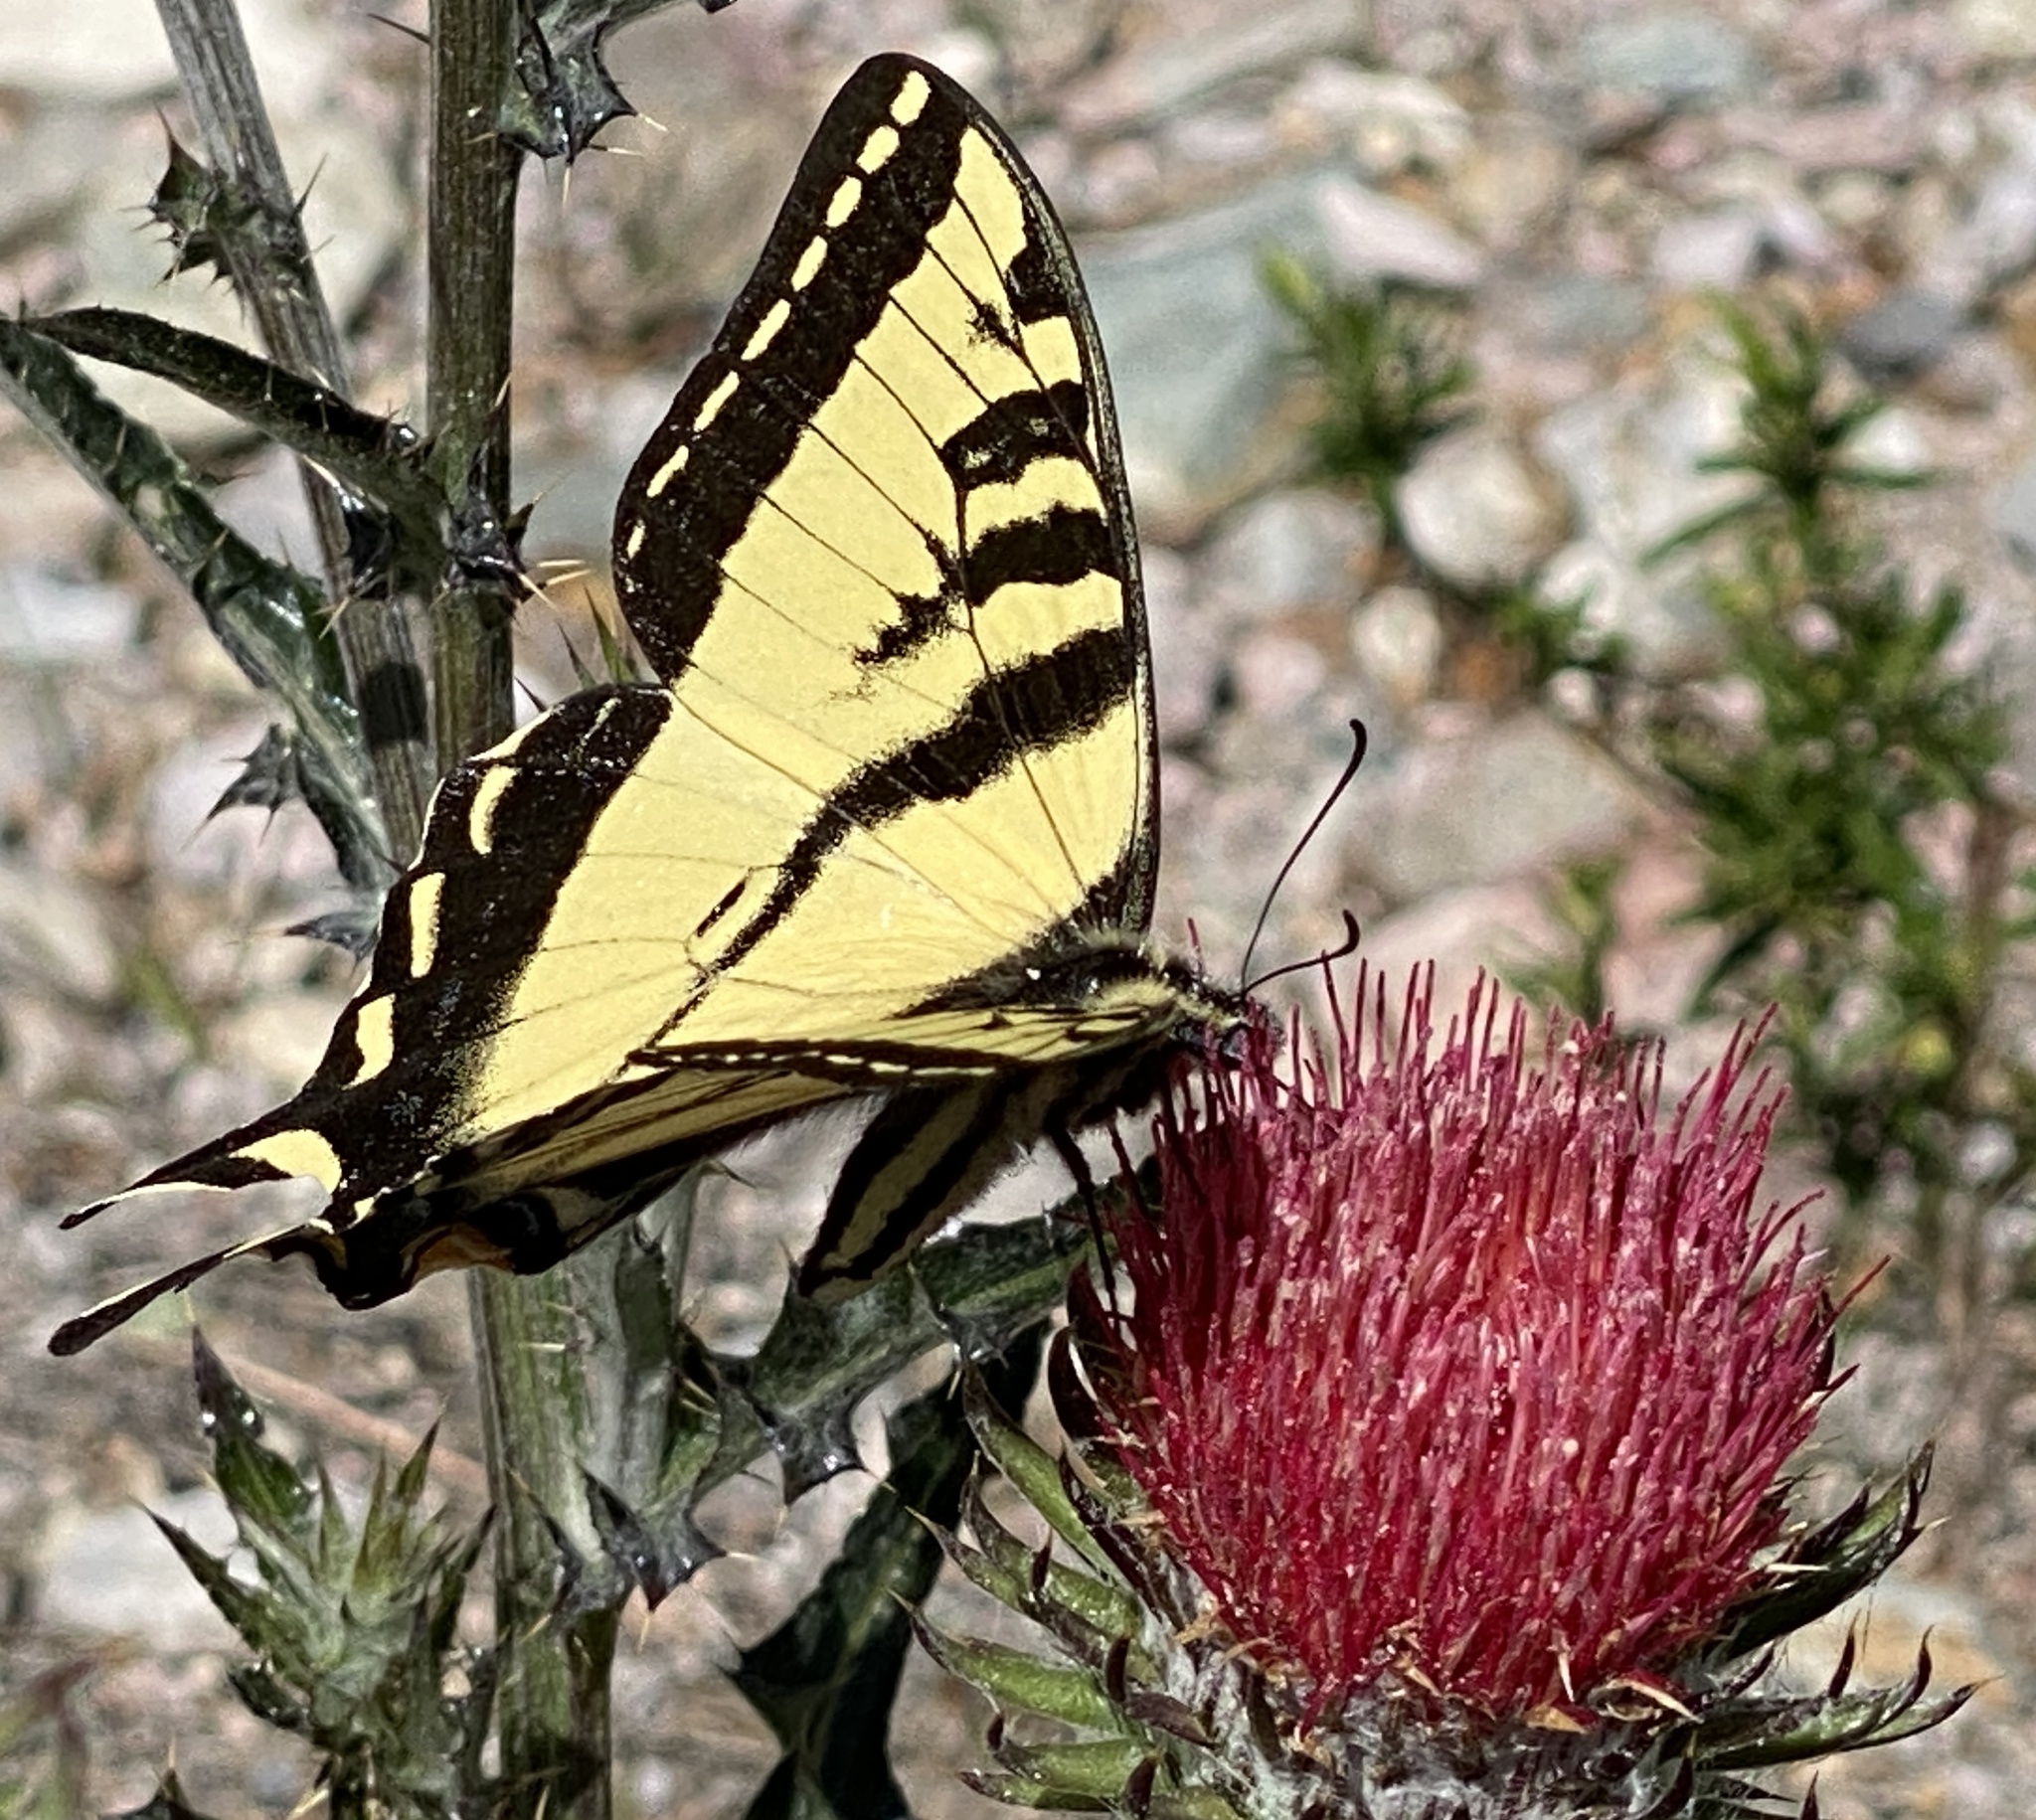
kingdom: Animalia
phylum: Arthropoda
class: Insecta
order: Lepidoptera
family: Papilionidae
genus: Papilio
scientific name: Papilio rutulus
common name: Western tiger swallowtail
